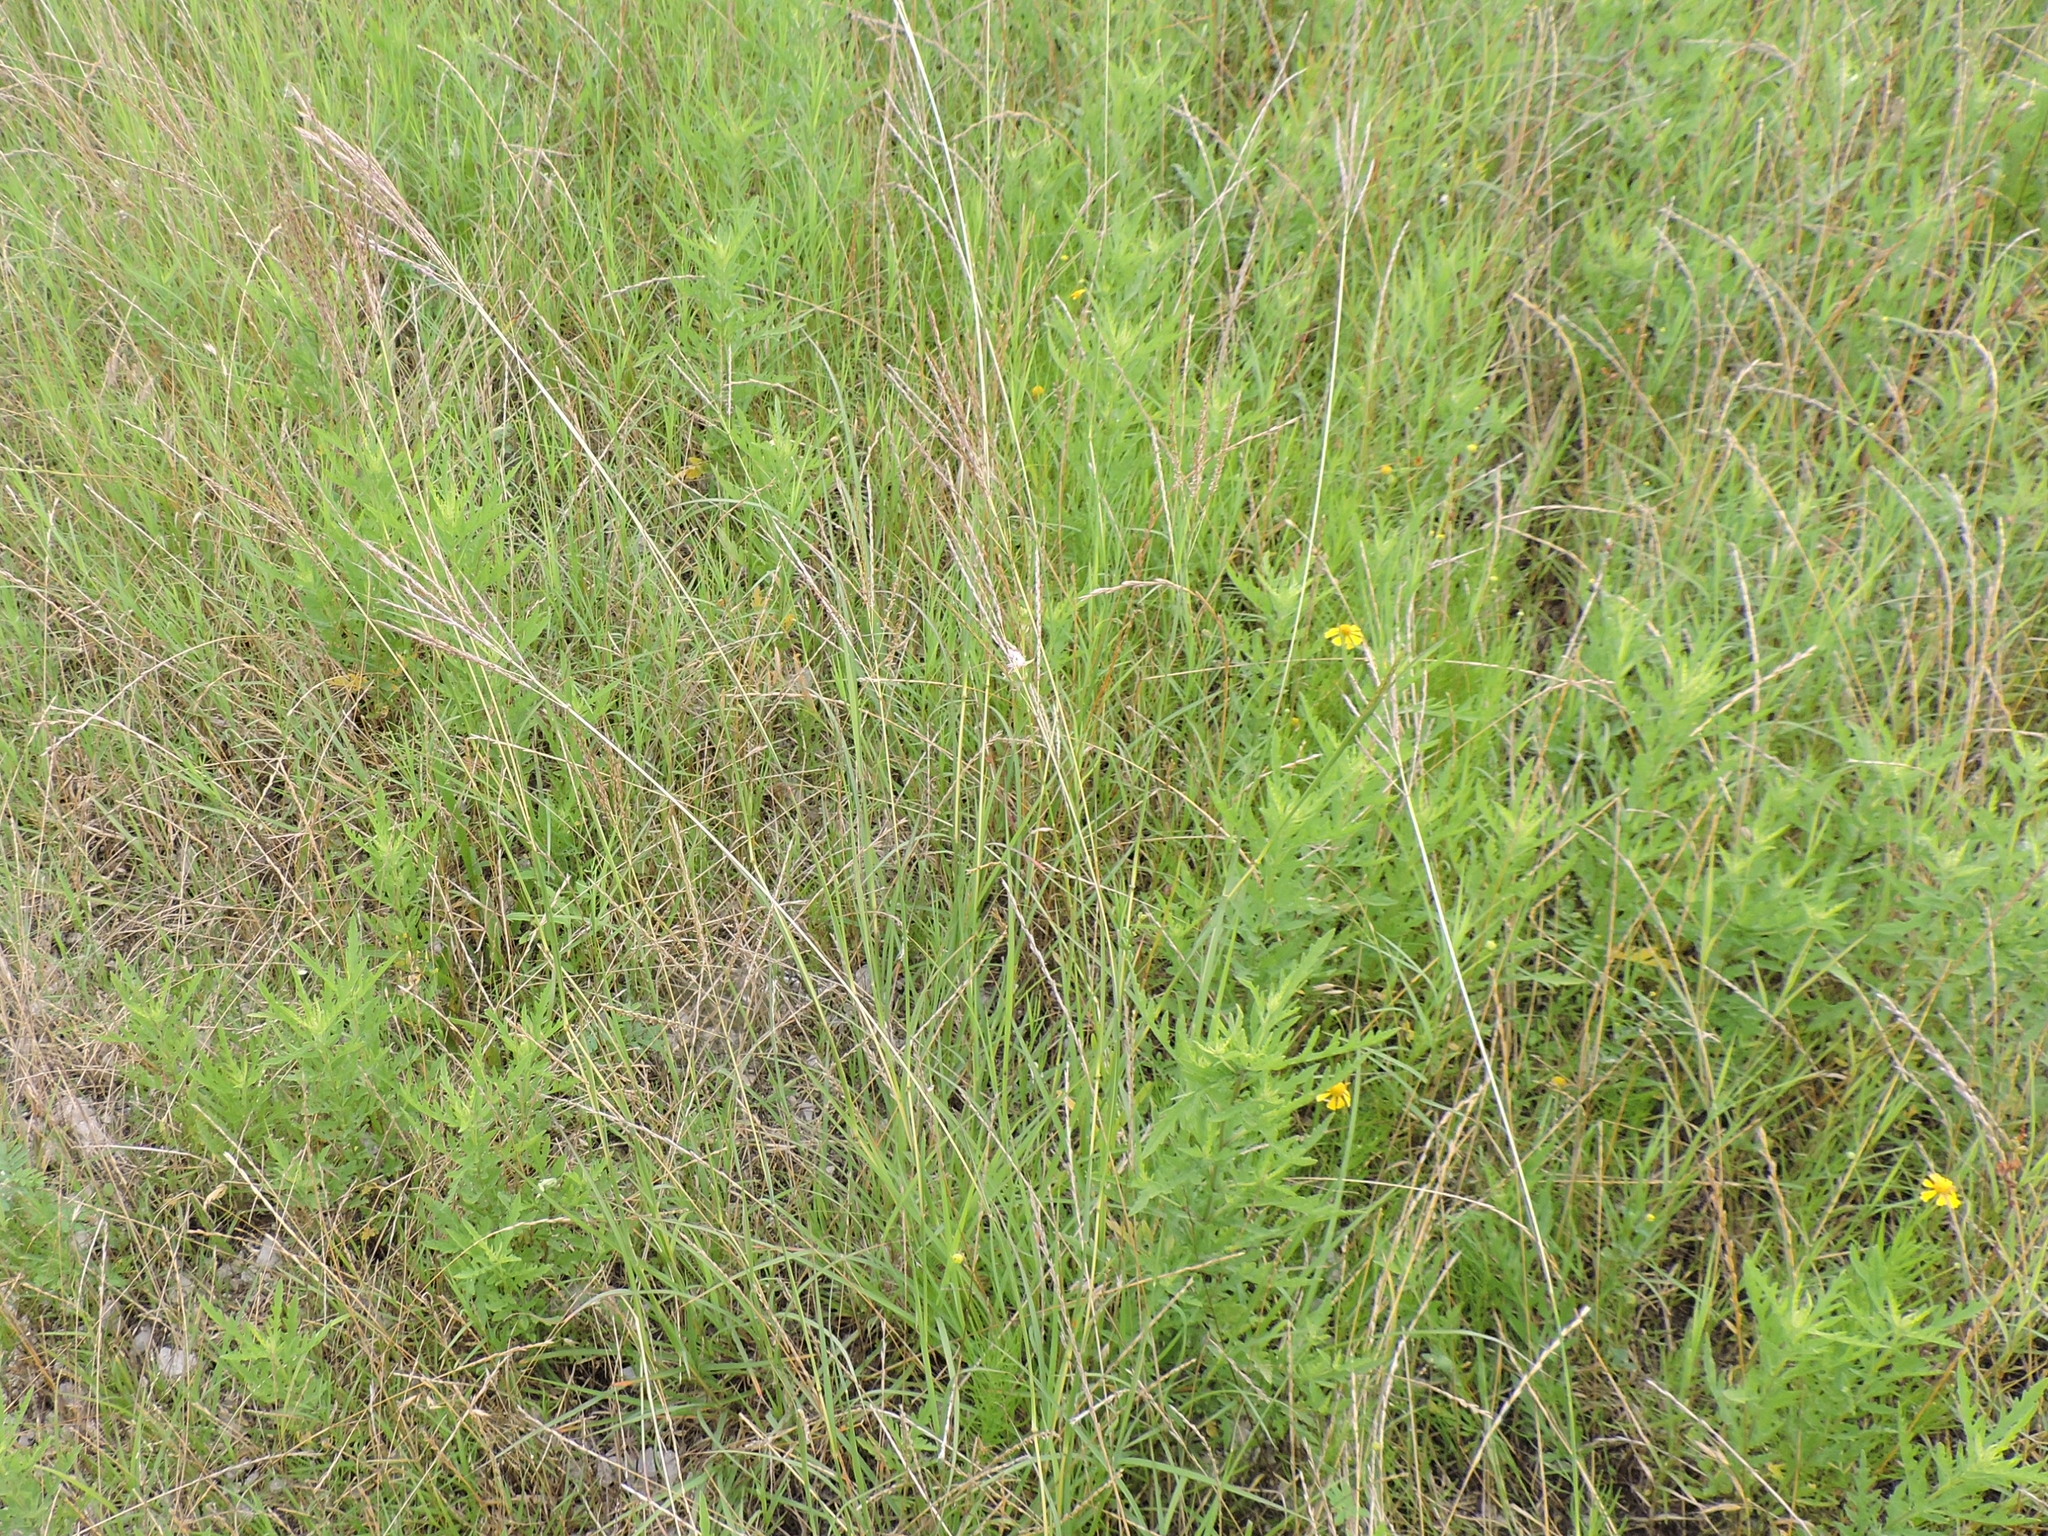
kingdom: Plantae
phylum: Tracheophyta
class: Liliopsida
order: Poales
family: Poaceae
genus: Bothriochloa
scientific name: Bothriochloa ischaemum
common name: Yellow bluestem
